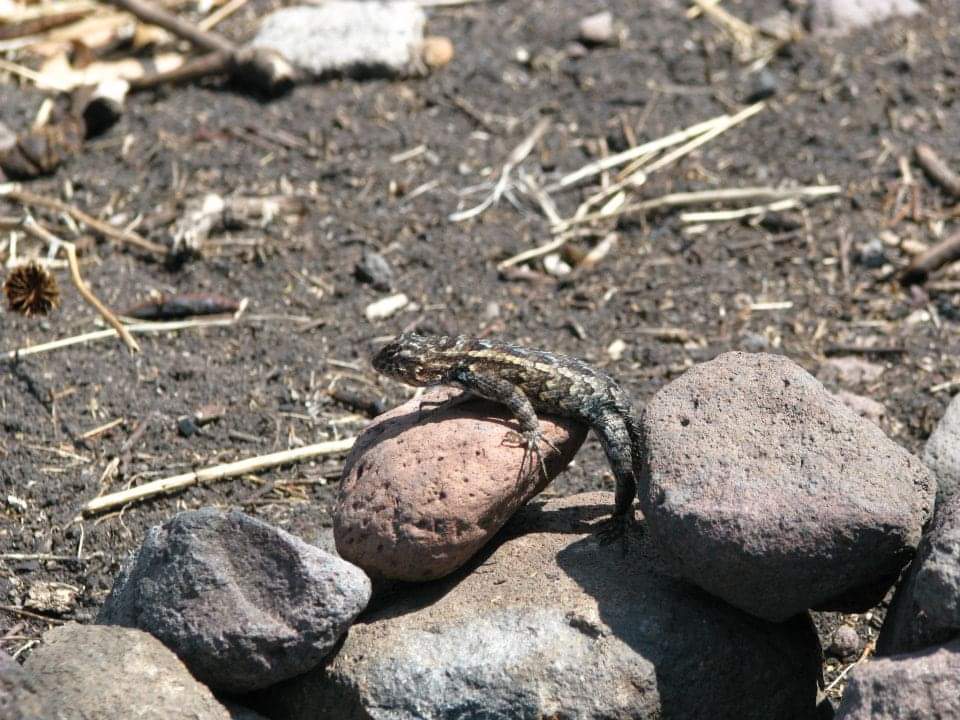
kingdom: Animalia
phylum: Chordata
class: Squamata
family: Phrynosomatidae
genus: Sceloporus
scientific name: Sceloporus spinosus
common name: Blue-spotted spiny lizard [caeruleopunctatus]
